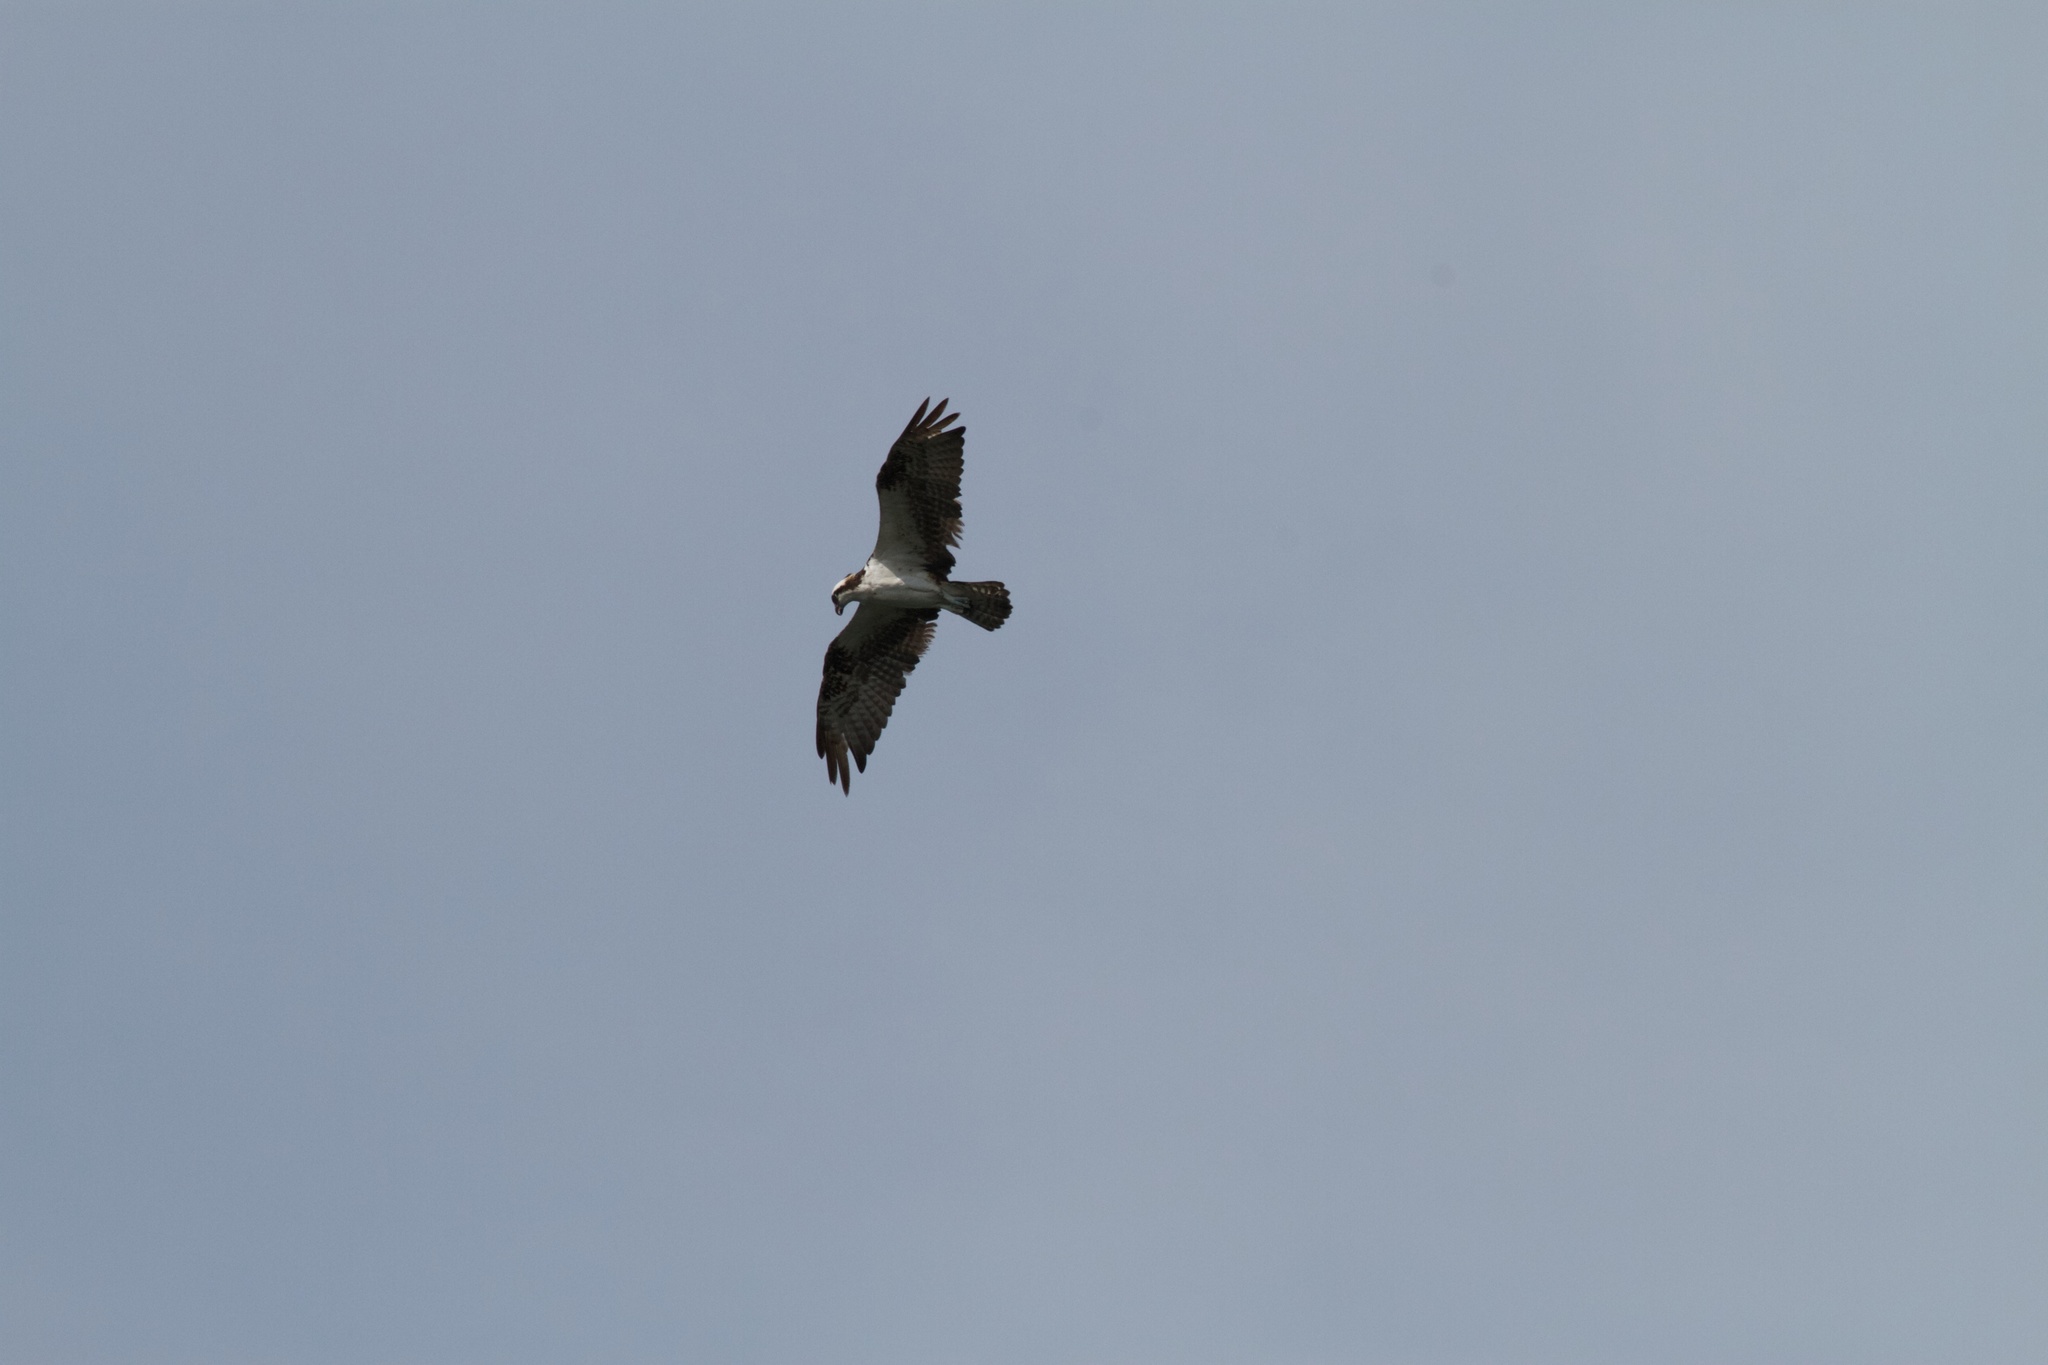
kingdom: Animalia
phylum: Chordata
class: Aves
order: Accipitriformes
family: Pandionidae
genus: Pandion
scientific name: Pandion haliaetus
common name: Osprey
